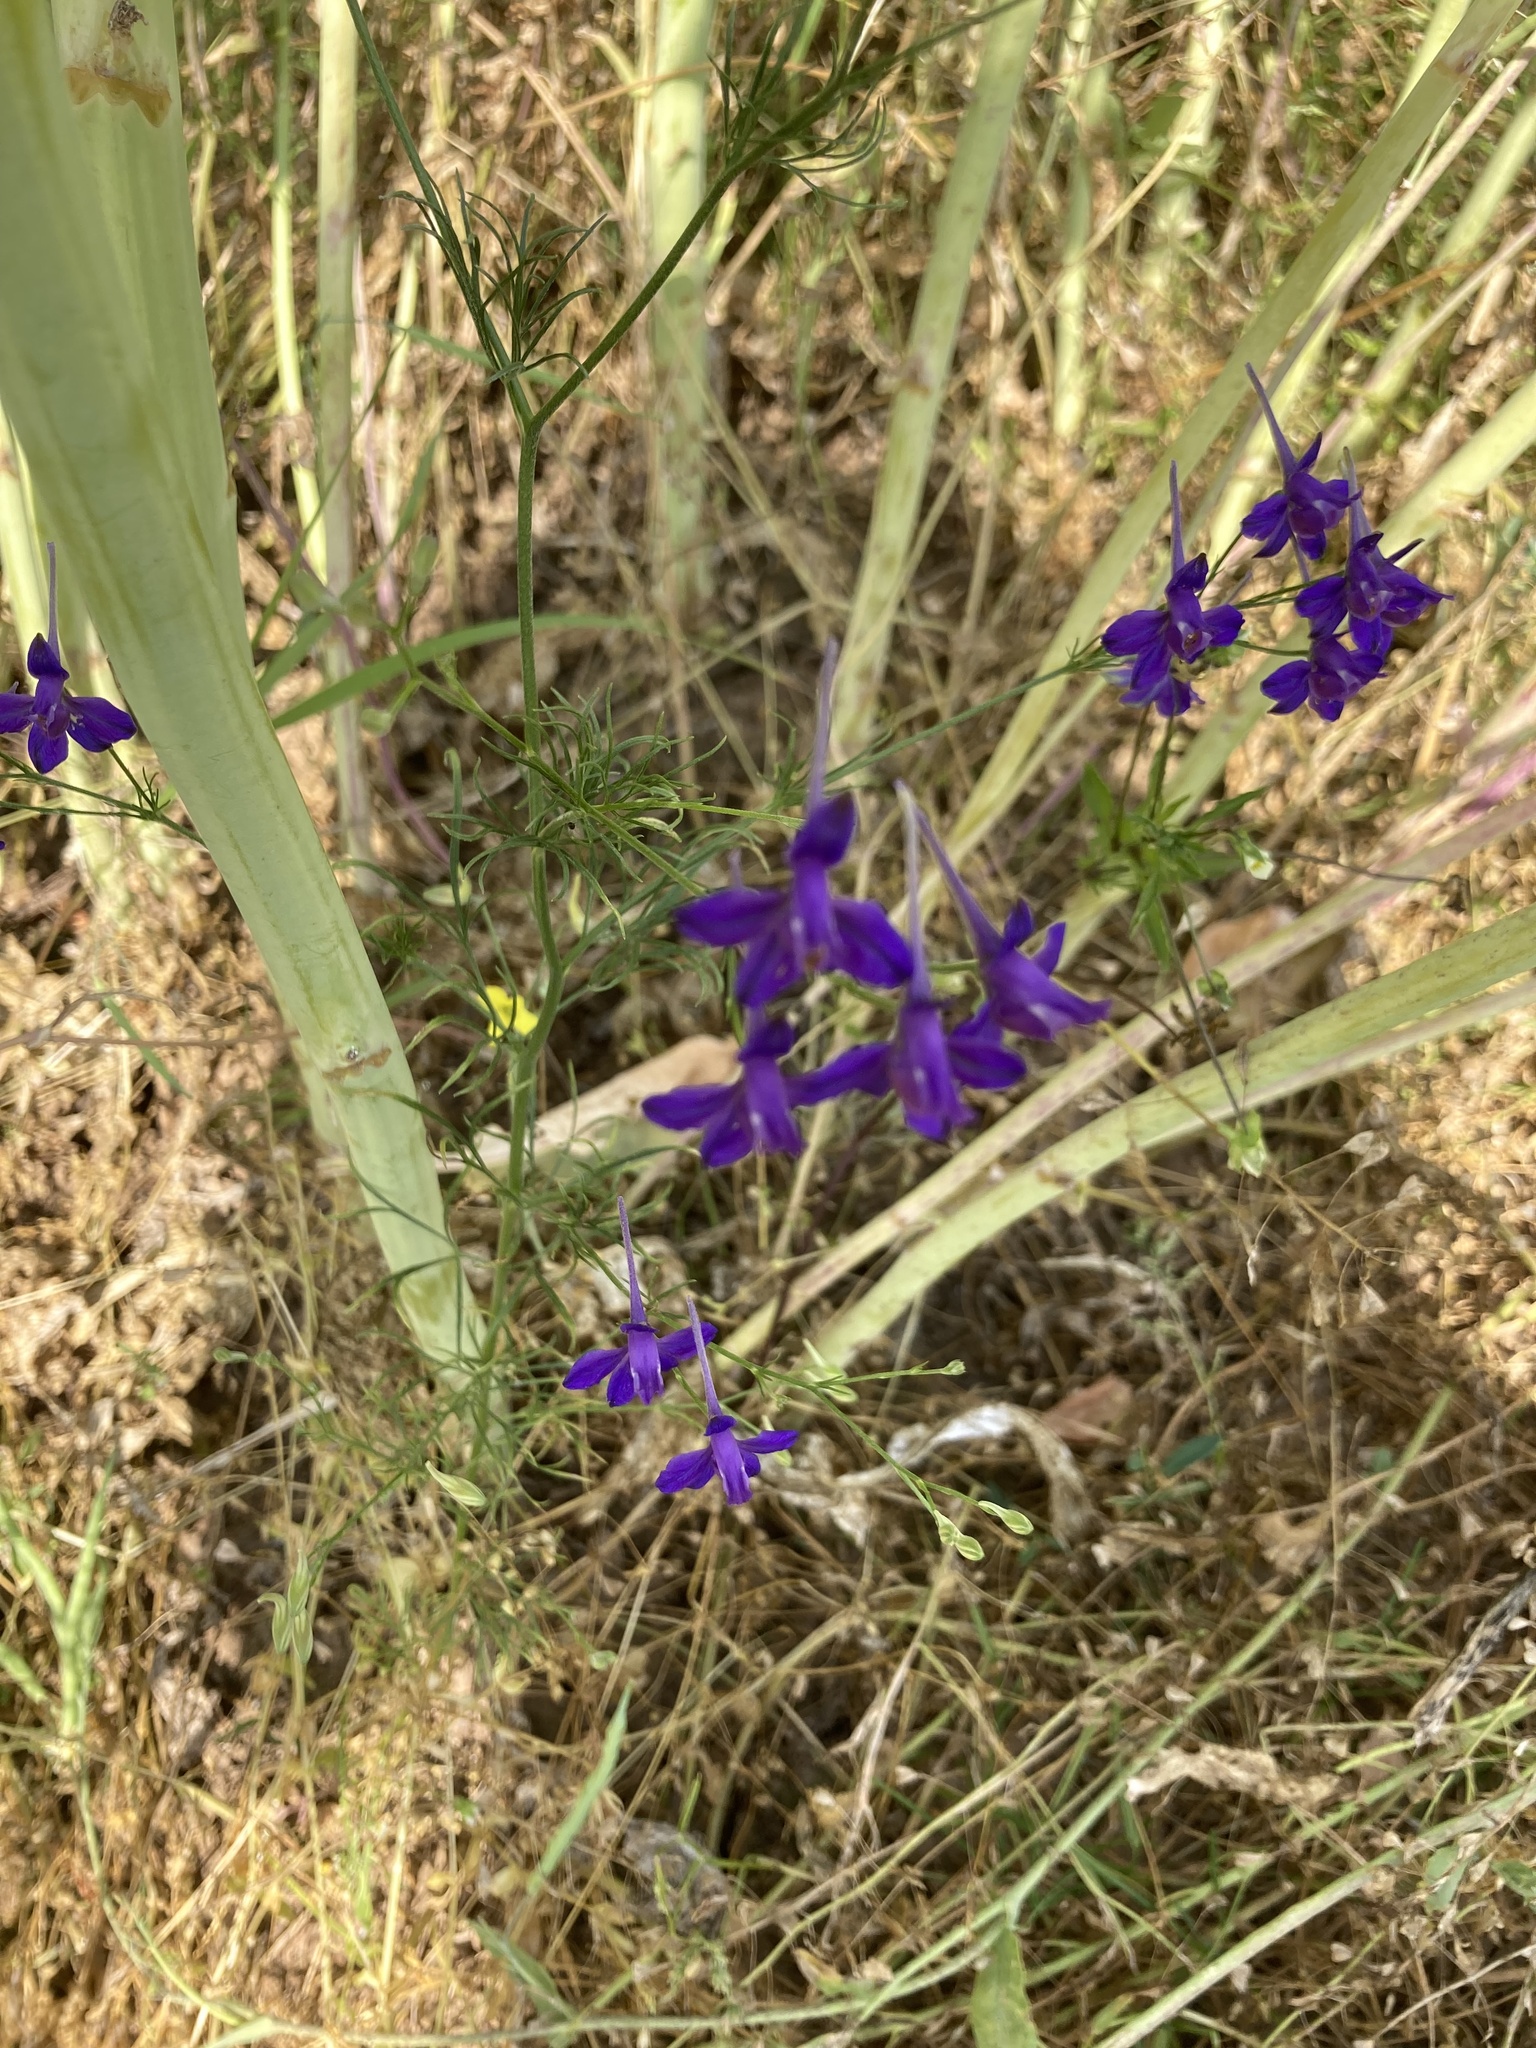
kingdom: Plantae
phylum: Tracheophyta
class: Magnoliopsida
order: Ranunculales
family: Ranunculaceae
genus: Delphinium
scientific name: Delphinium consolida
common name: Branching larkspur
